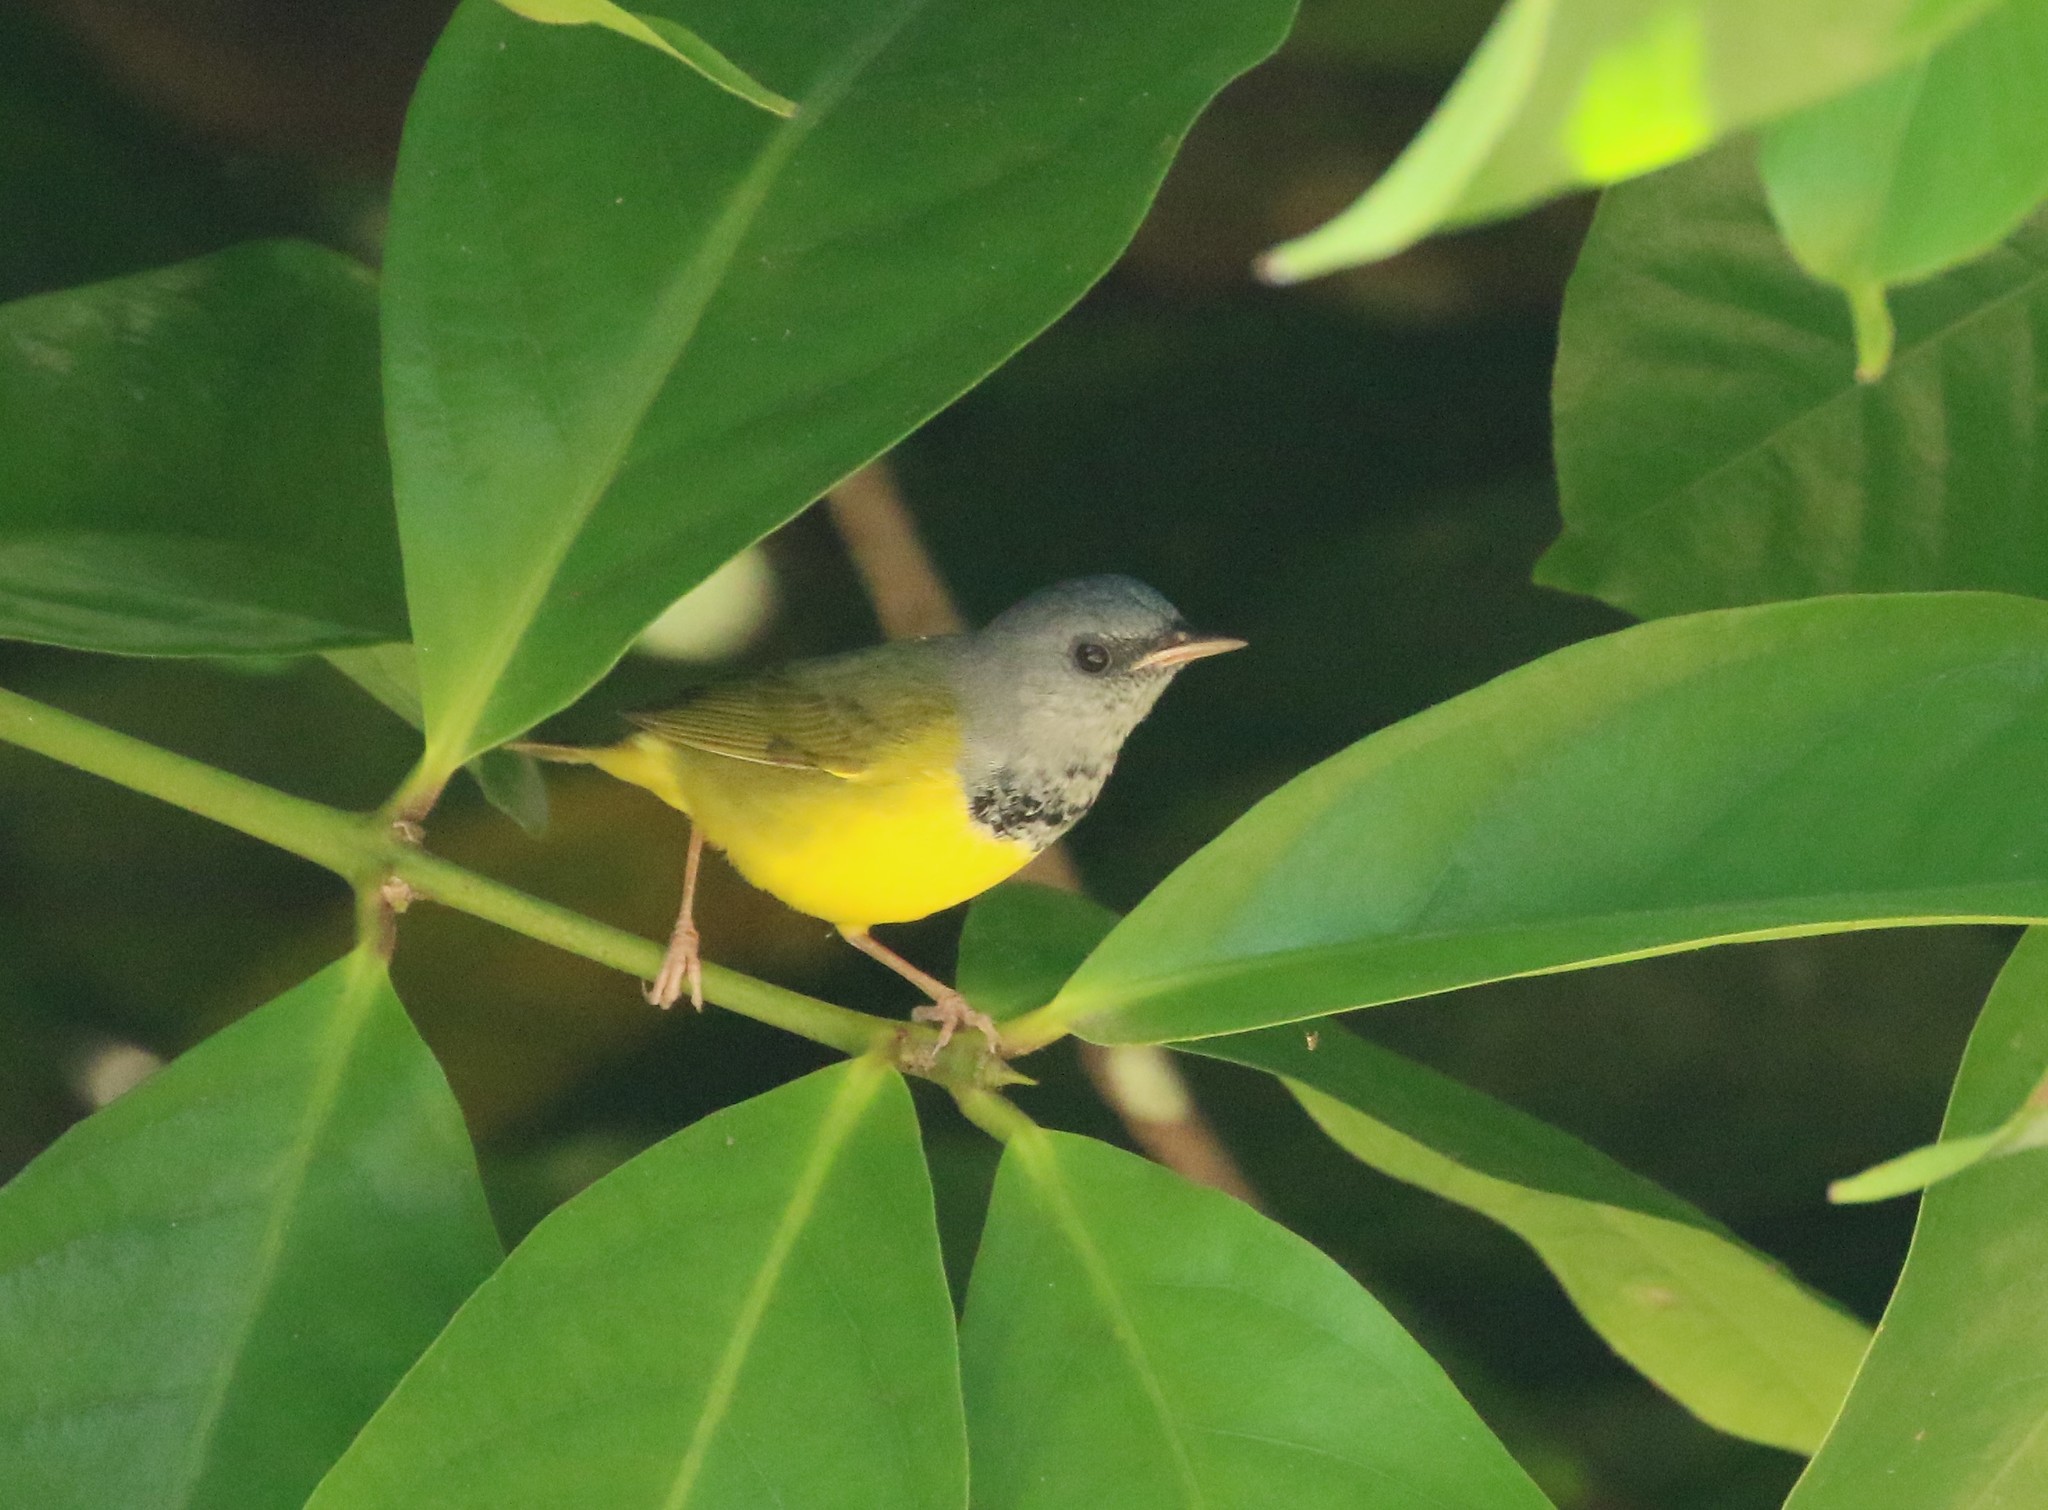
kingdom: Animalia
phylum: Chordata
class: Aves
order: Passeriformes
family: Parulidae
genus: Geothlypis
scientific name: Geothlypis philadelphia
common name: Mourning warbler
